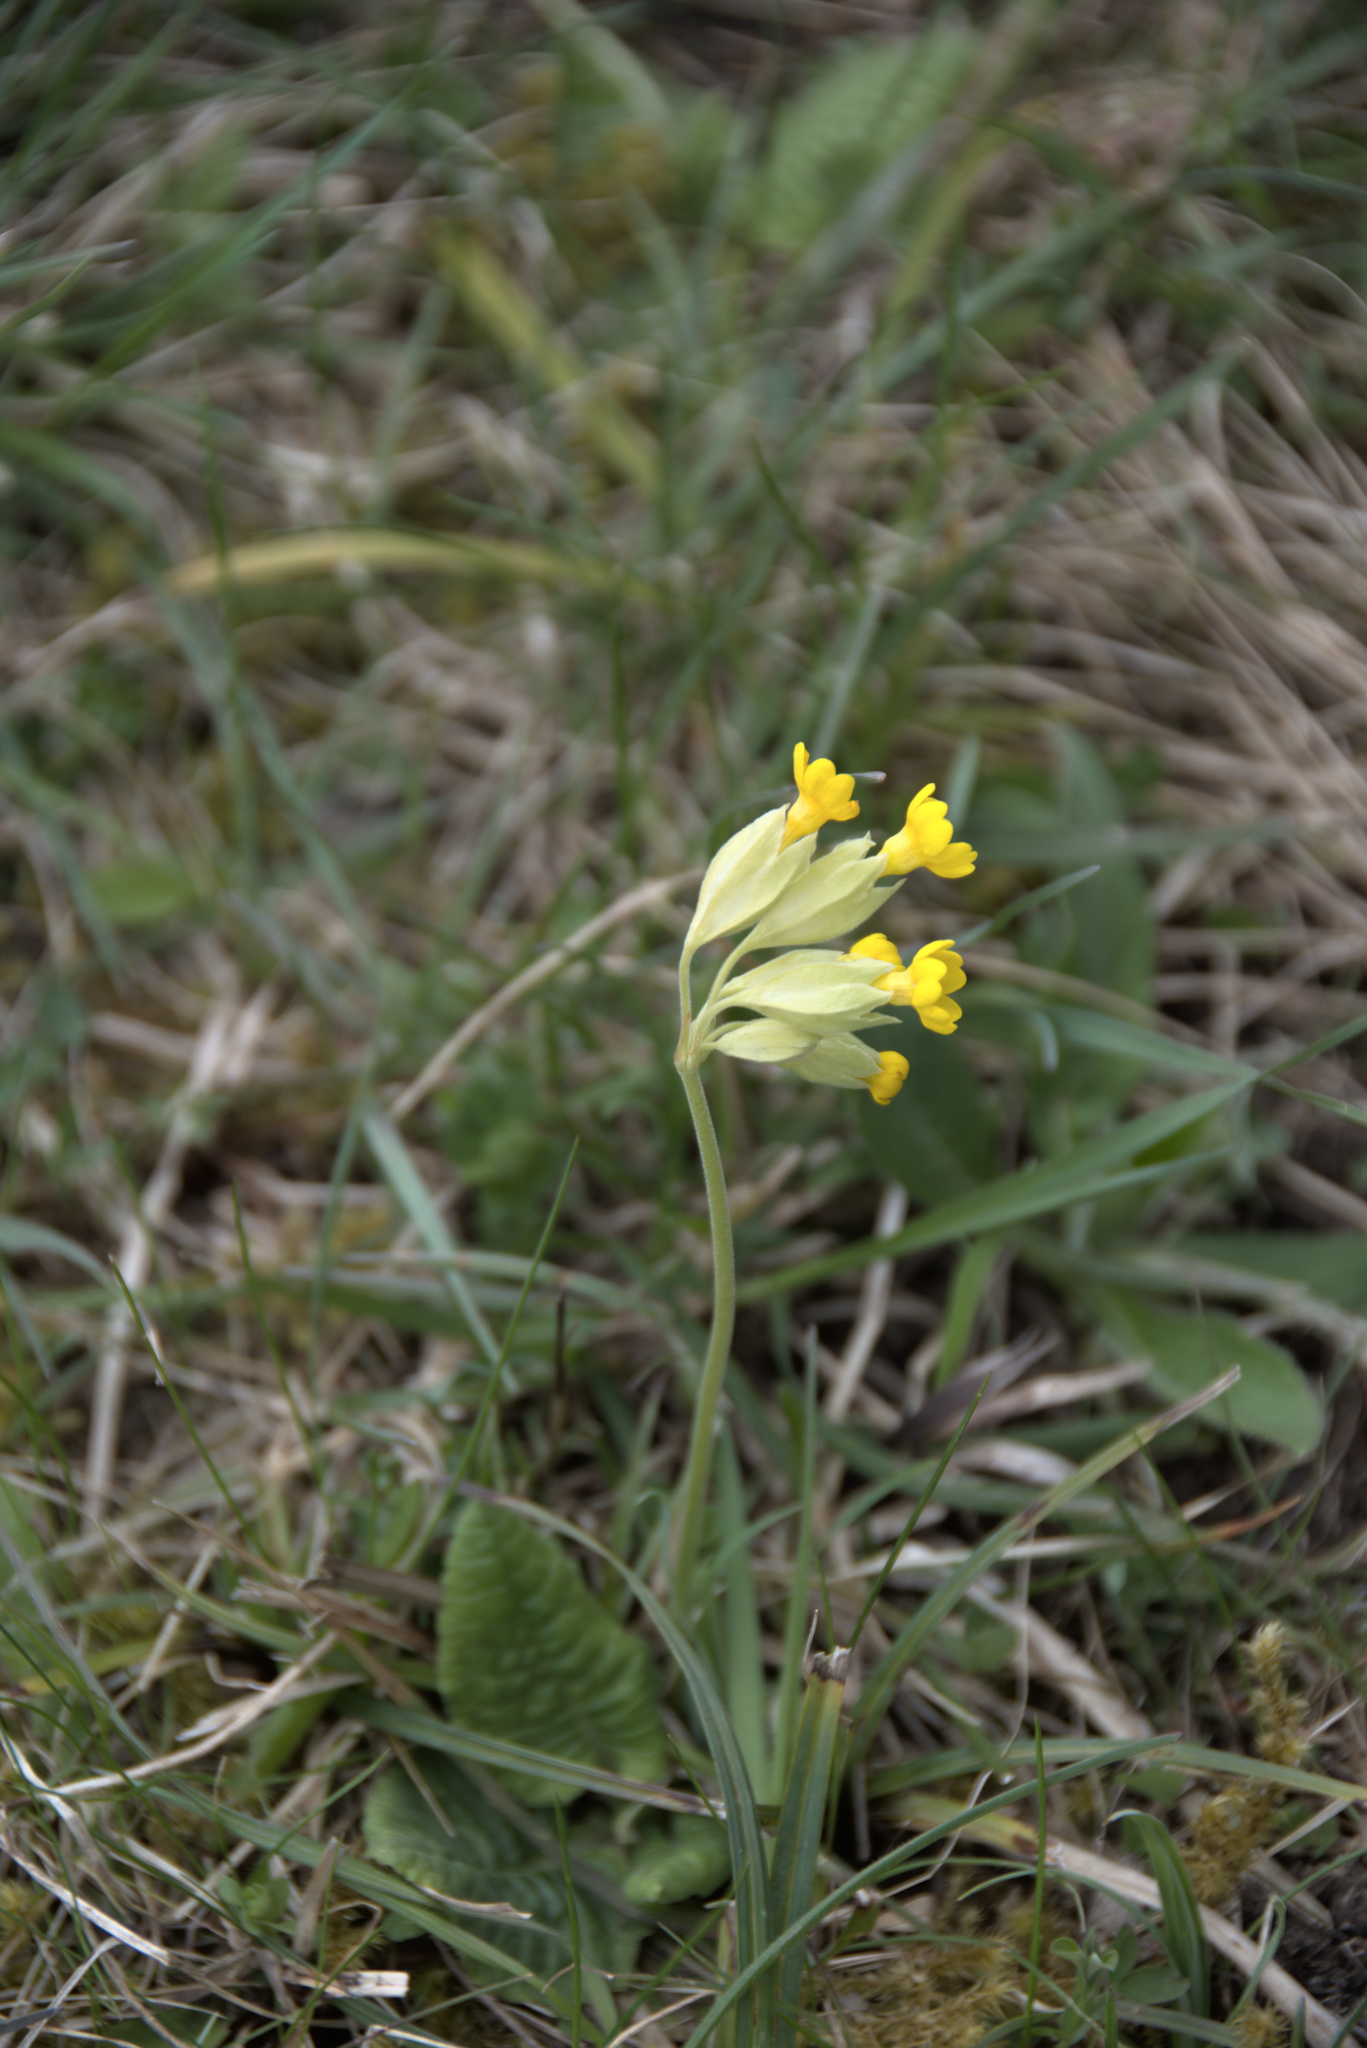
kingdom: Plantae
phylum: Tracheophyta
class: Magnoliopsida
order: Ericales
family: Primulaceae
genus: Primula
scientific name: Primula veris
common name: Cowslip
